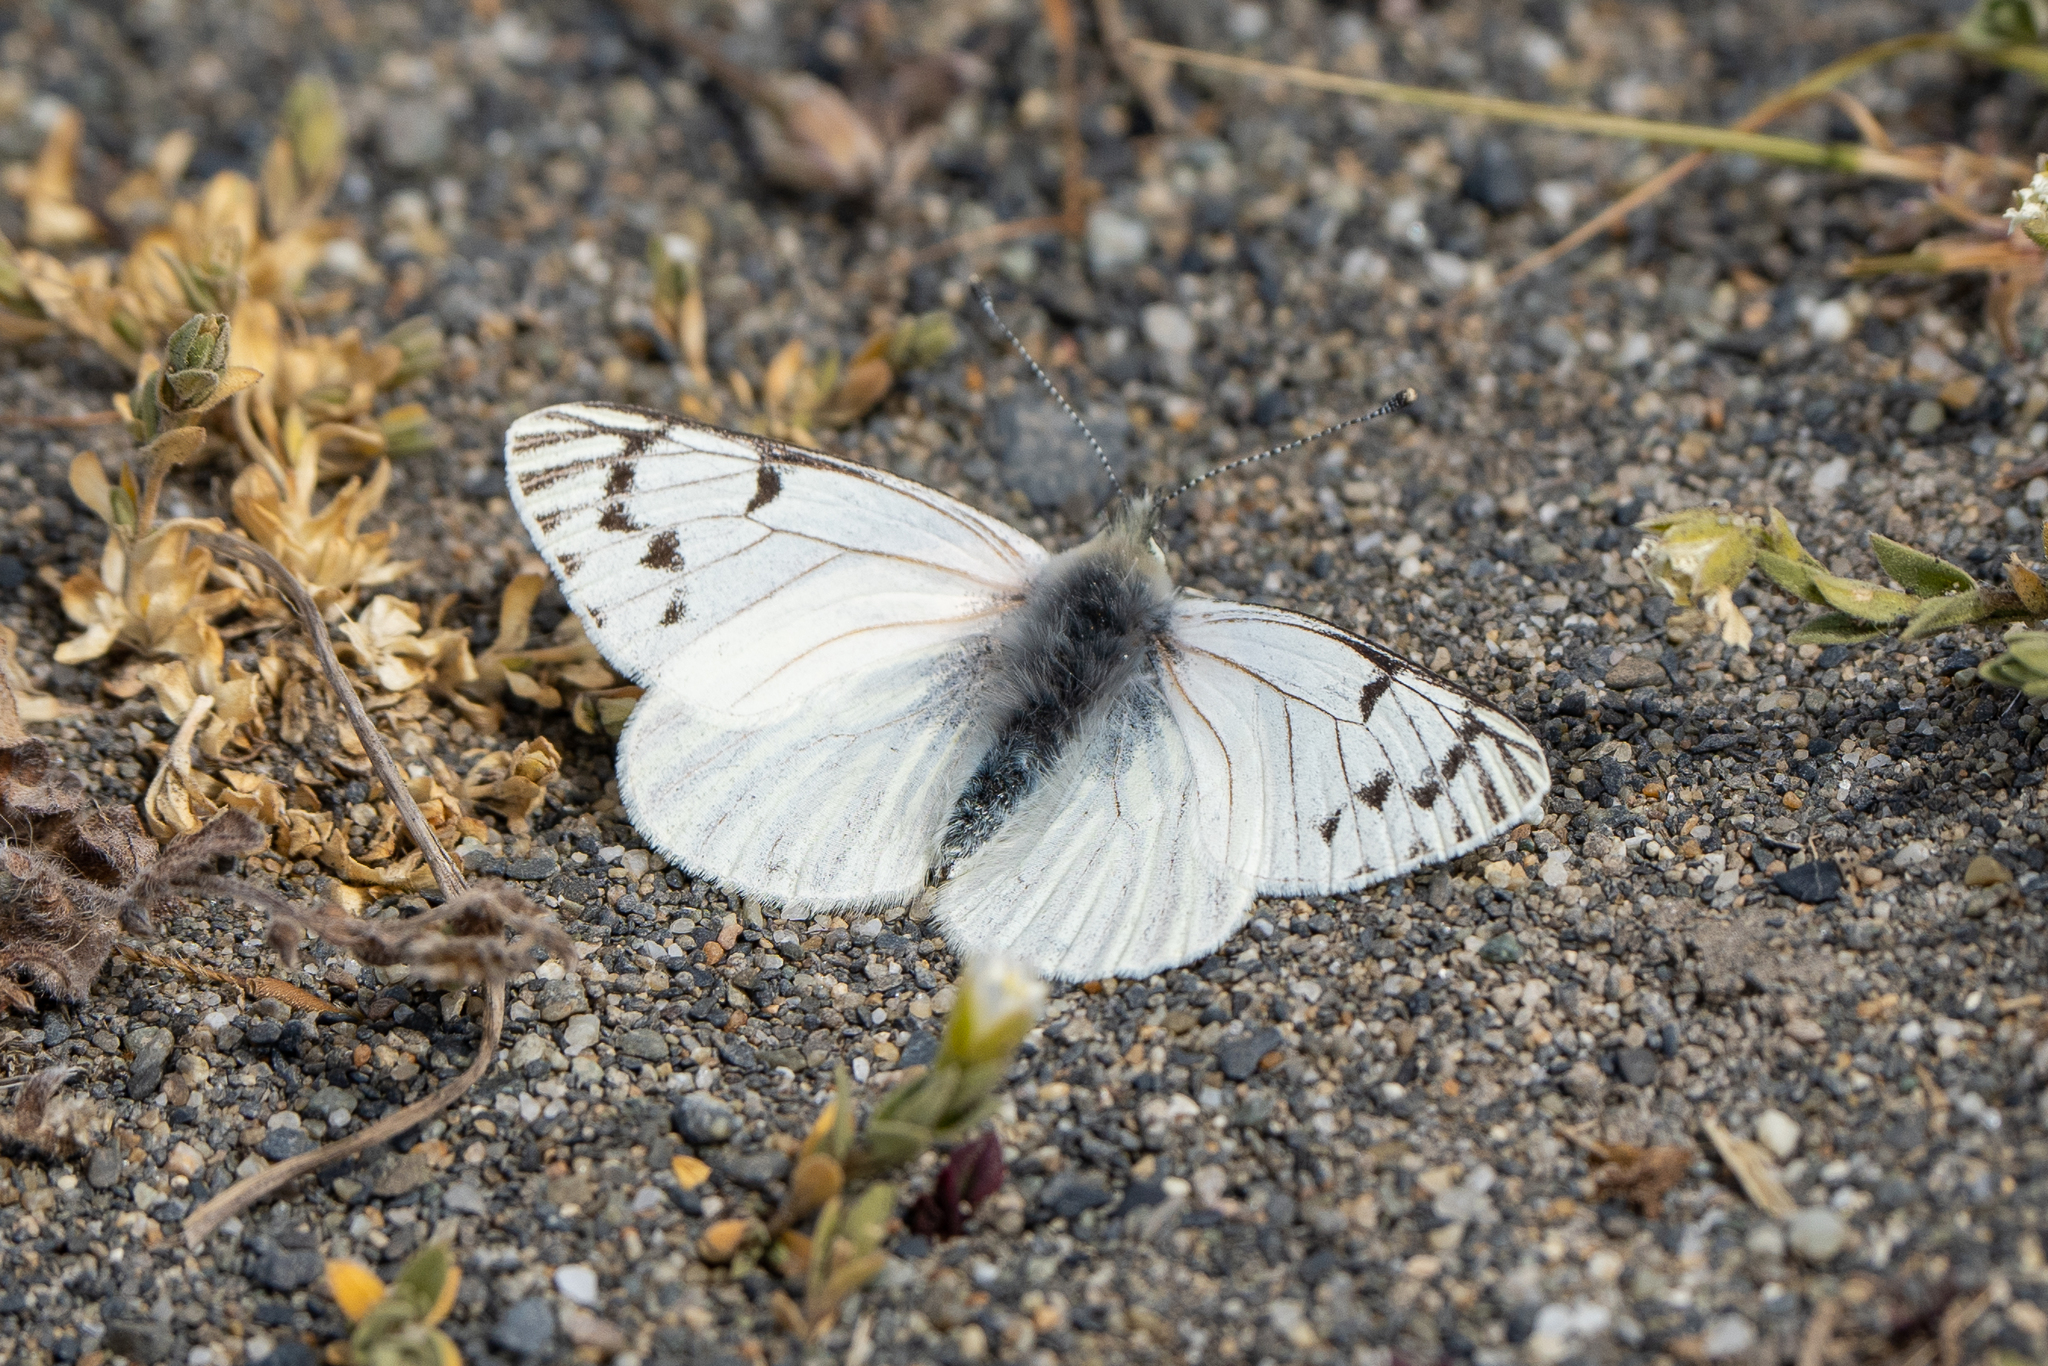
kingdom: Animalia
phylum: Arthropoda
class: Insecta
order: Lepidoptera
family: Pieridae
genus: Hypsochila
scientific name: Hypsochila microdice
